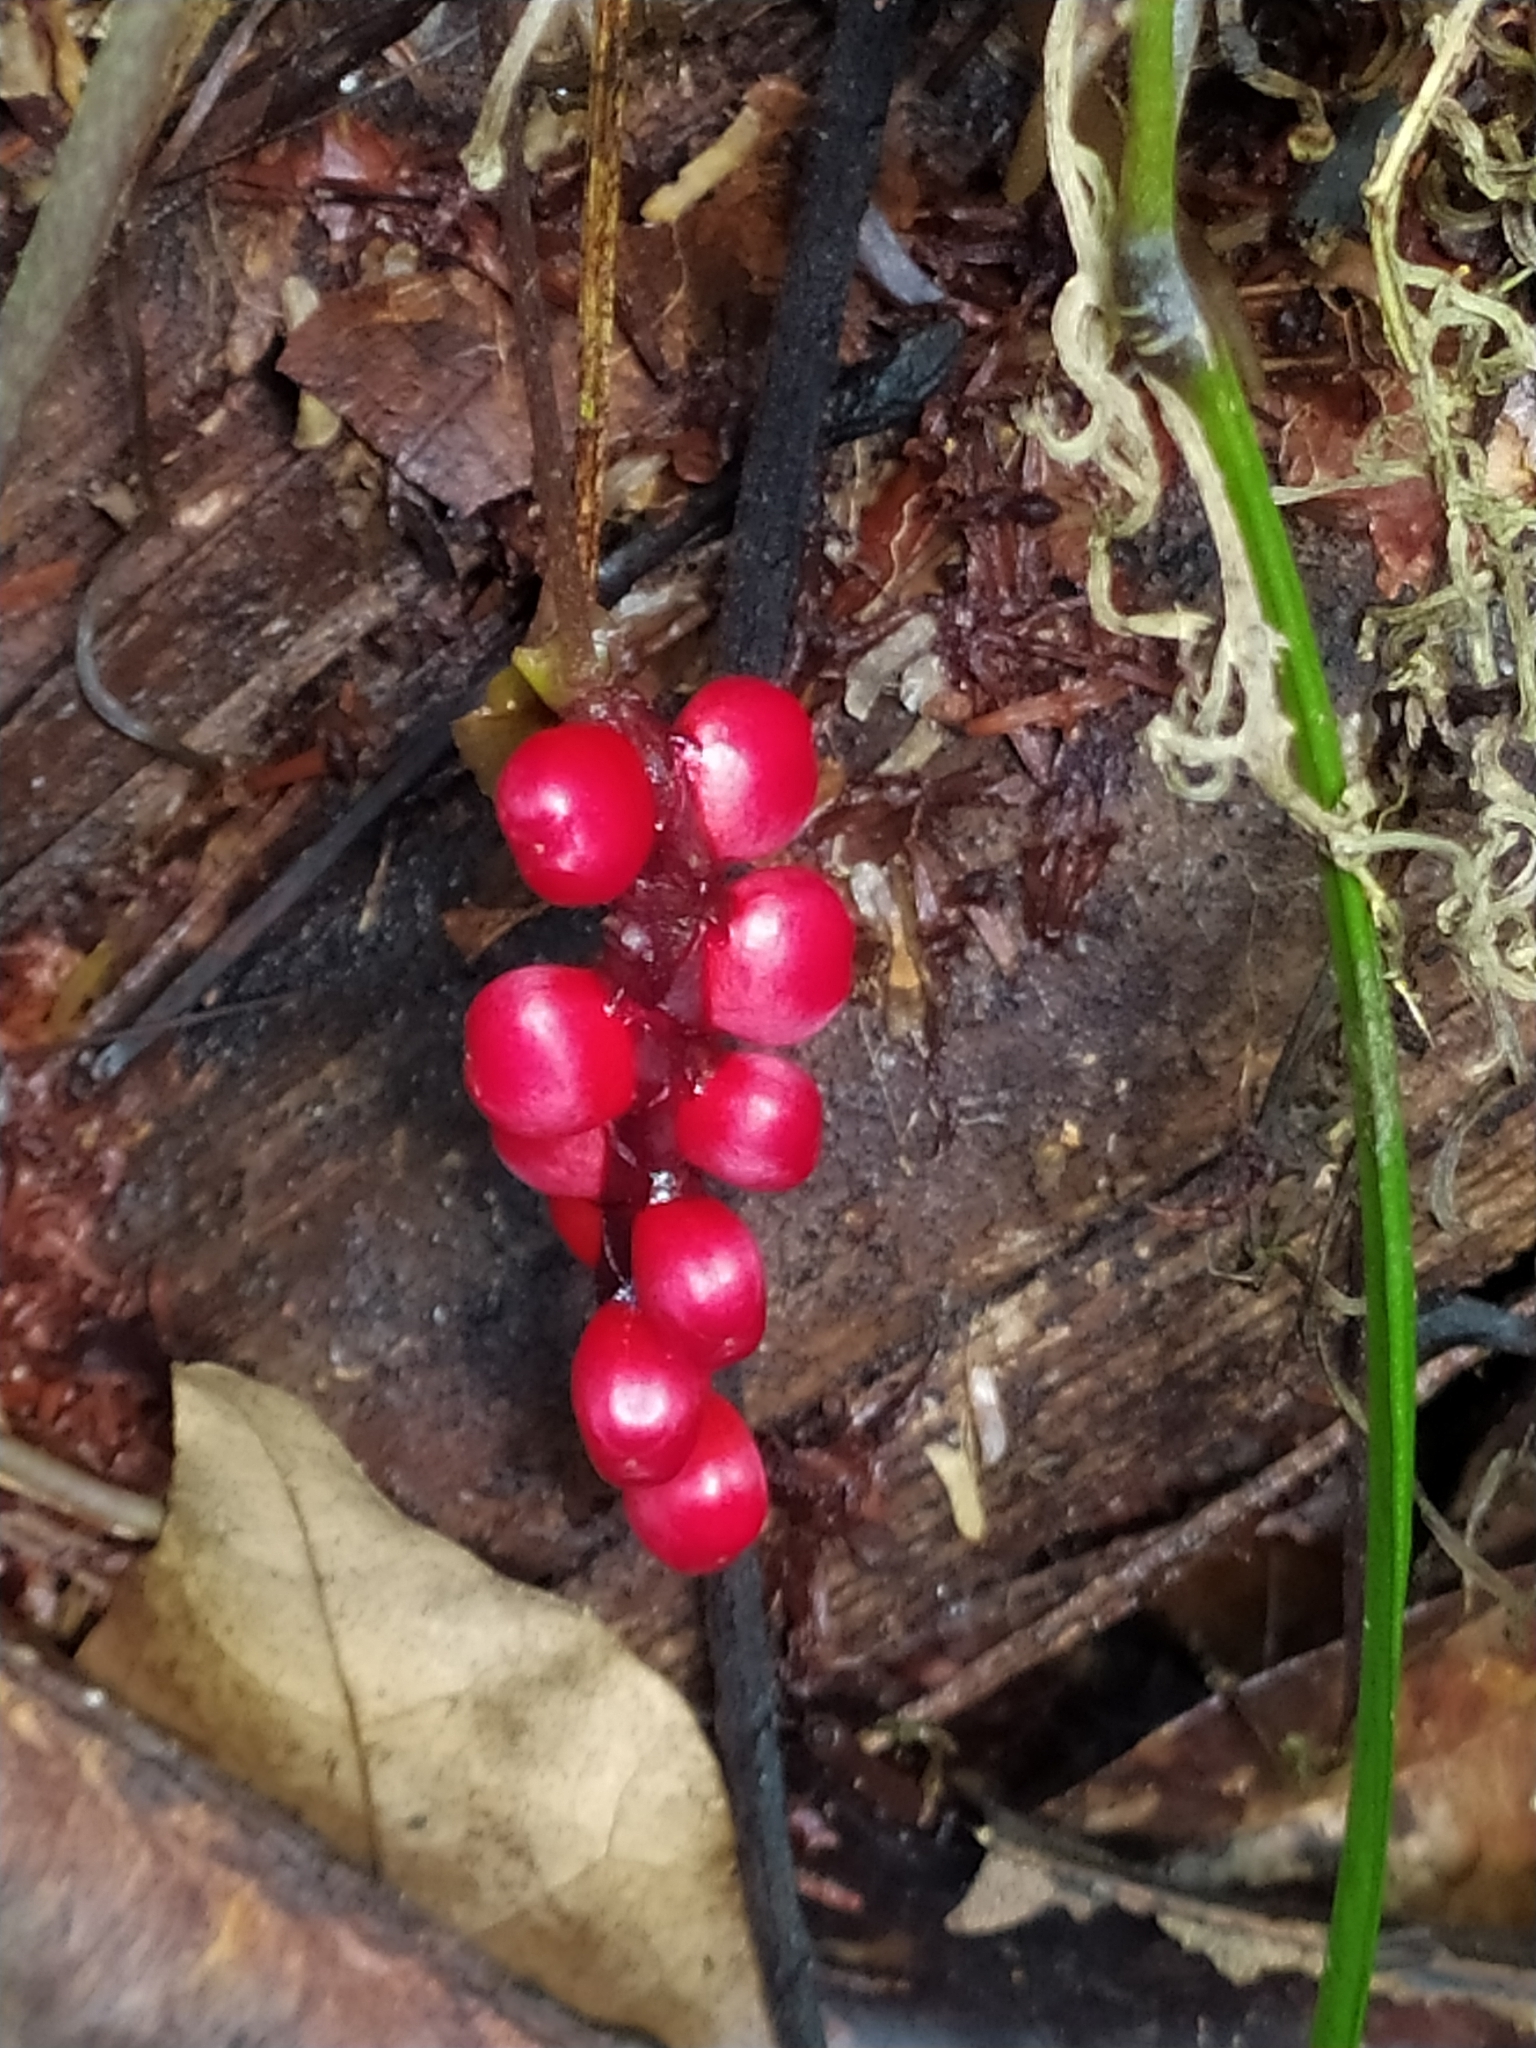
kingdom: Plantae
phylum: Tracheophyta
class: Liliopsida
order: Alismatales
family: Araceae
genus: Anthurium
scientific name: Anthurium gracile
